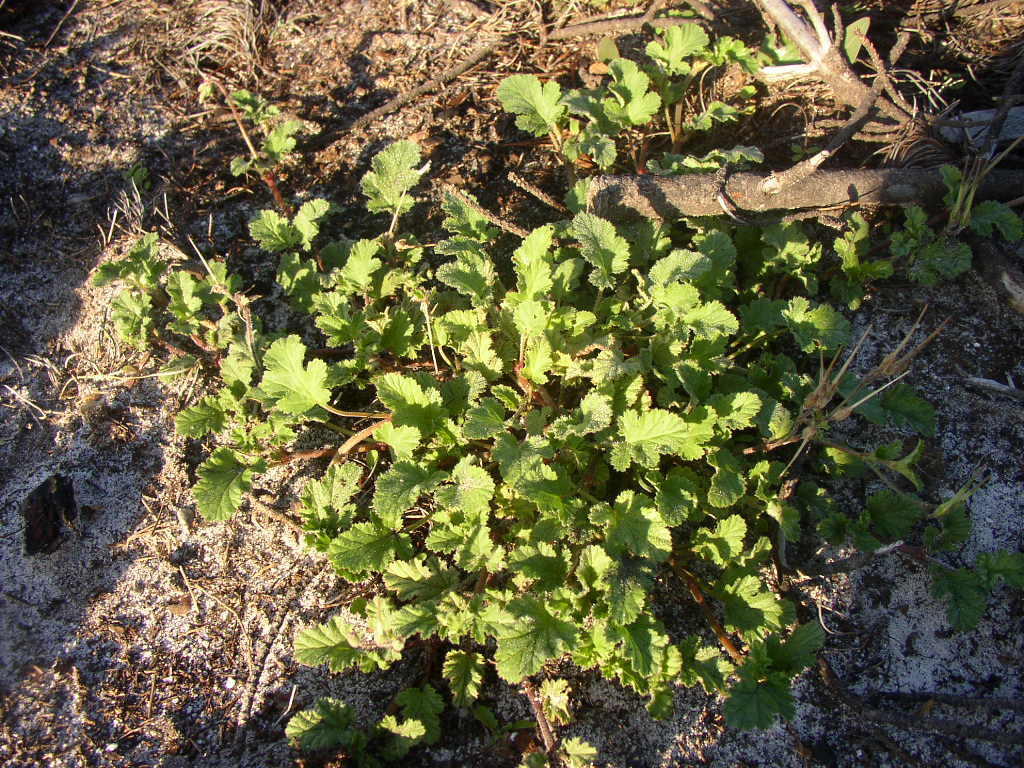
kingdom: Plantae
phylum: Tracheophyta
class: Magnoliopsida
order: Geraniales
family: Geraniaceae
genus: Pelargonium
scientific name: Pelargonium althaeoides
